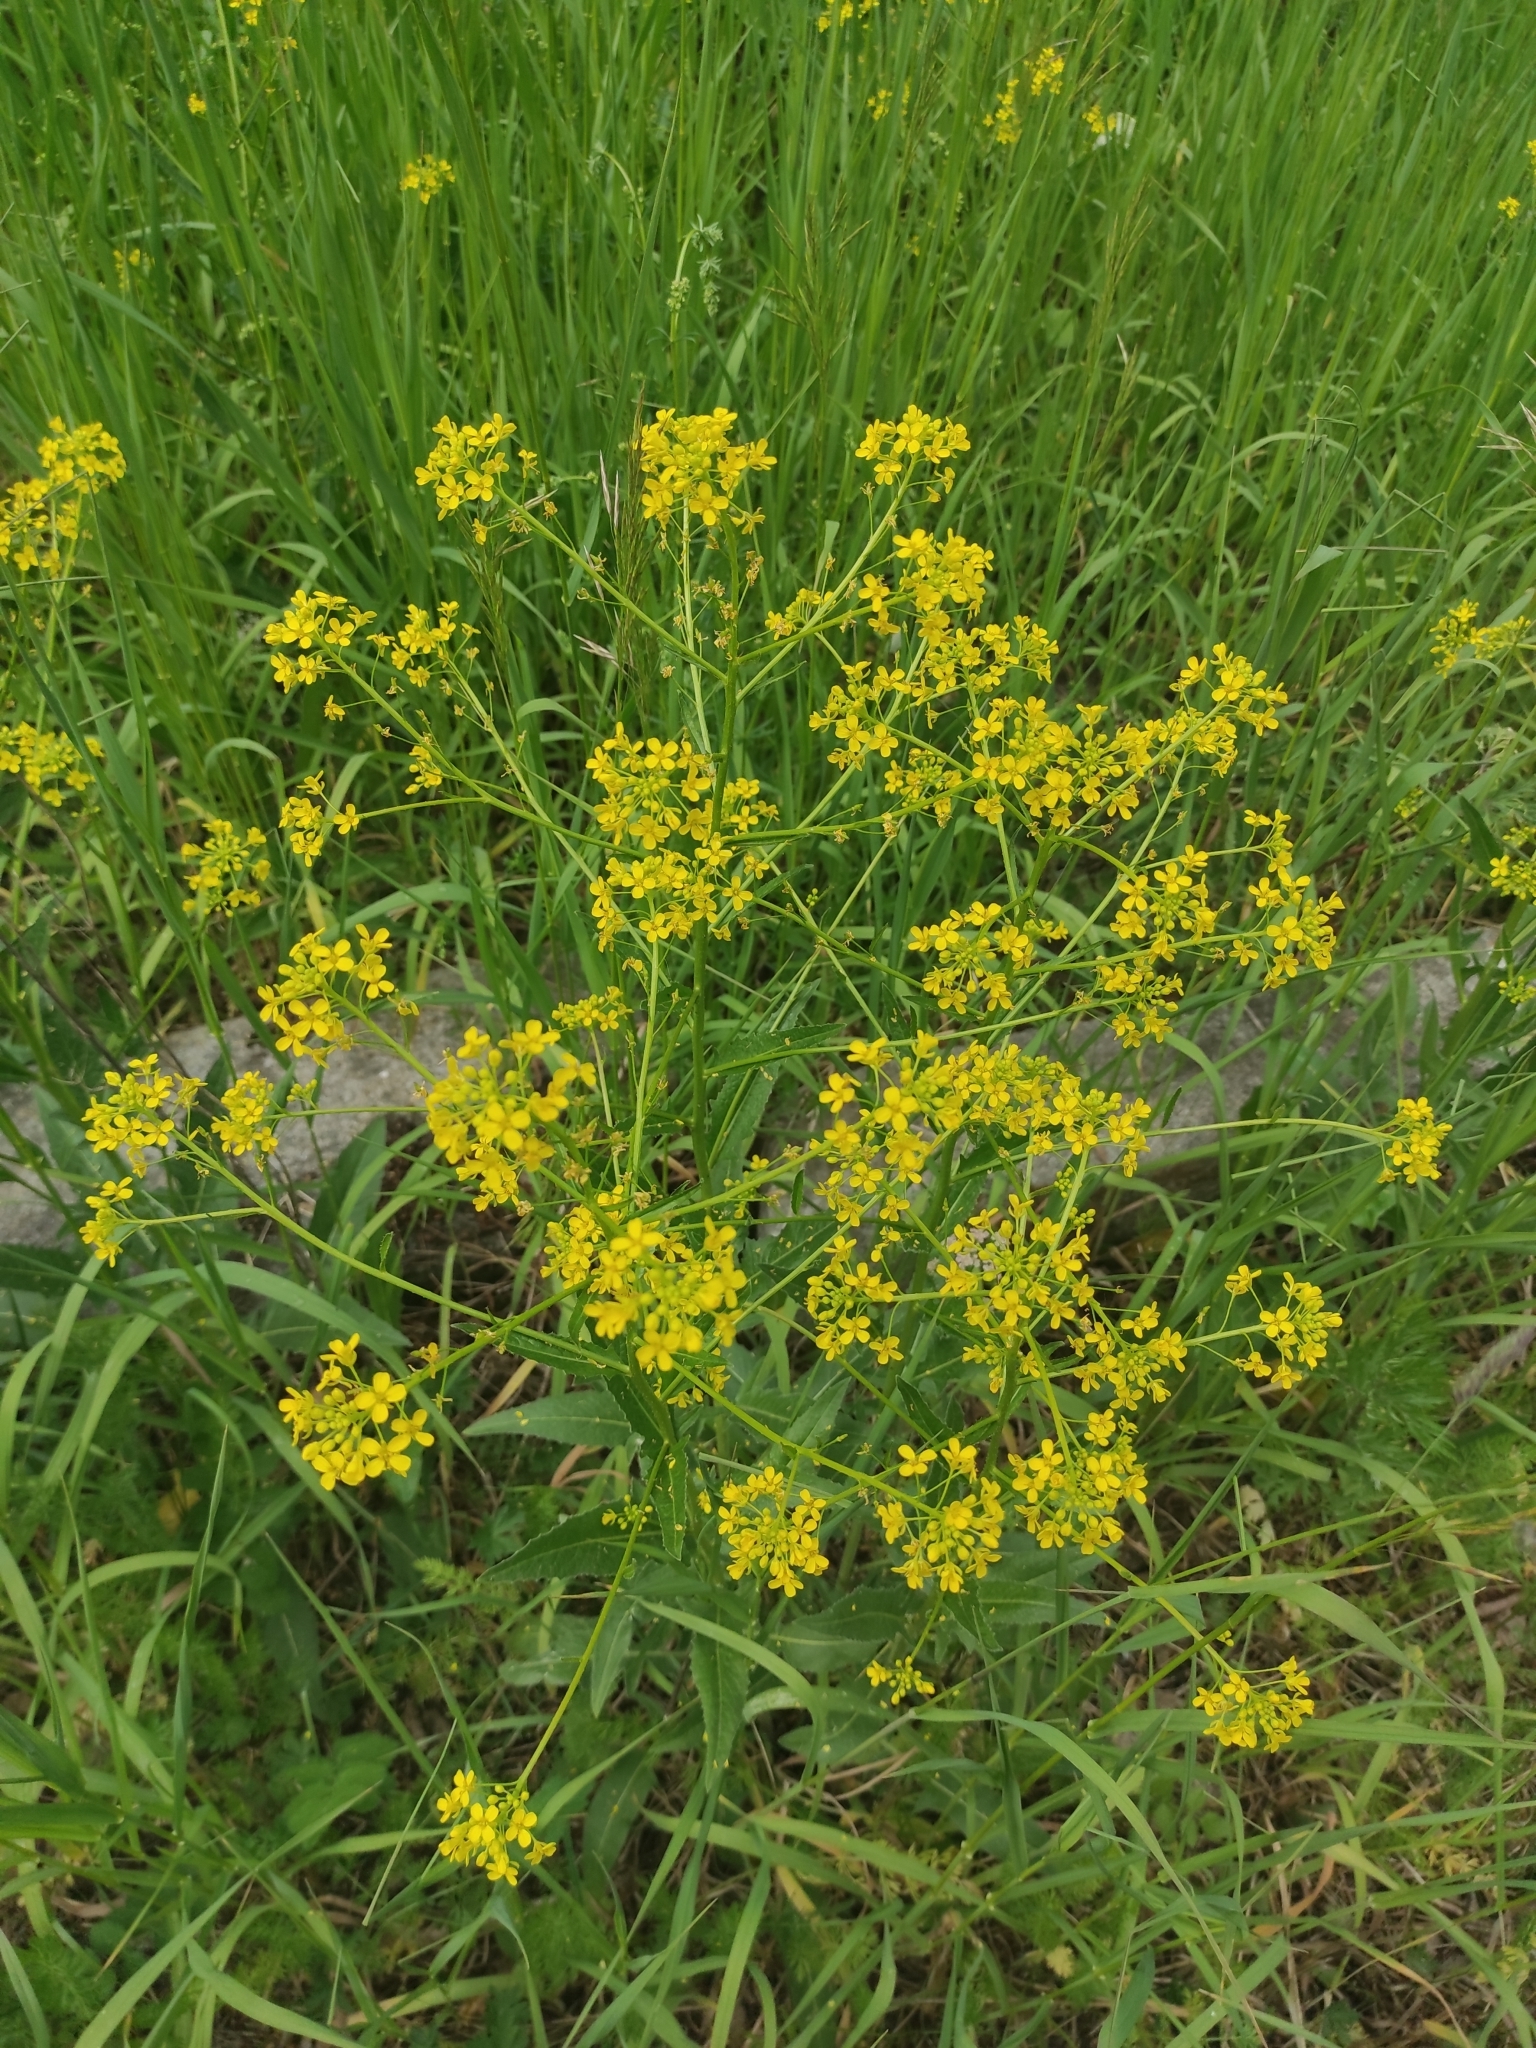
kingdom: Plantae
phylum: Tracheophyta
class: Magnoliopsida
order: Brassicales
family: Brassicaceae
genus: Bunias
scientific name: Bunias orientalis
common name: Warty-cabbage
